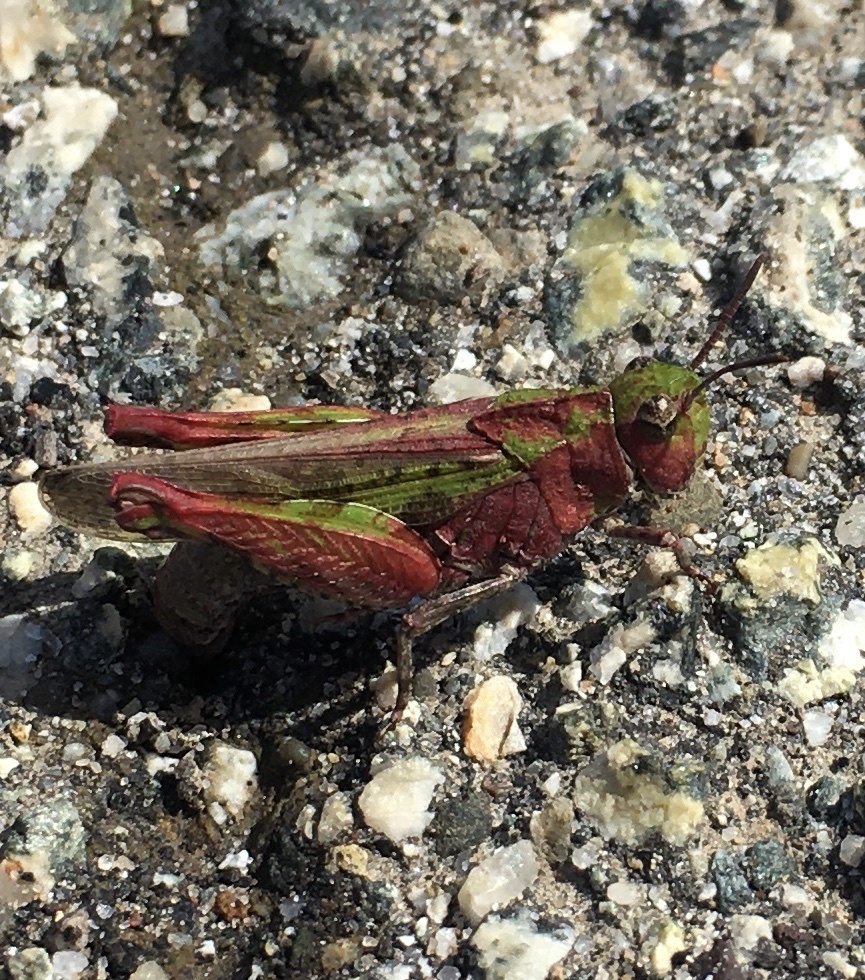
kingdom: Animalia
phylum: Arthropoda
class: Insecta
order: Orthoptera
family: Acrididae
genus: Chimarocephala
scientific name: Chimarocephala pacifica
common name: Painted meadow grasshopper
